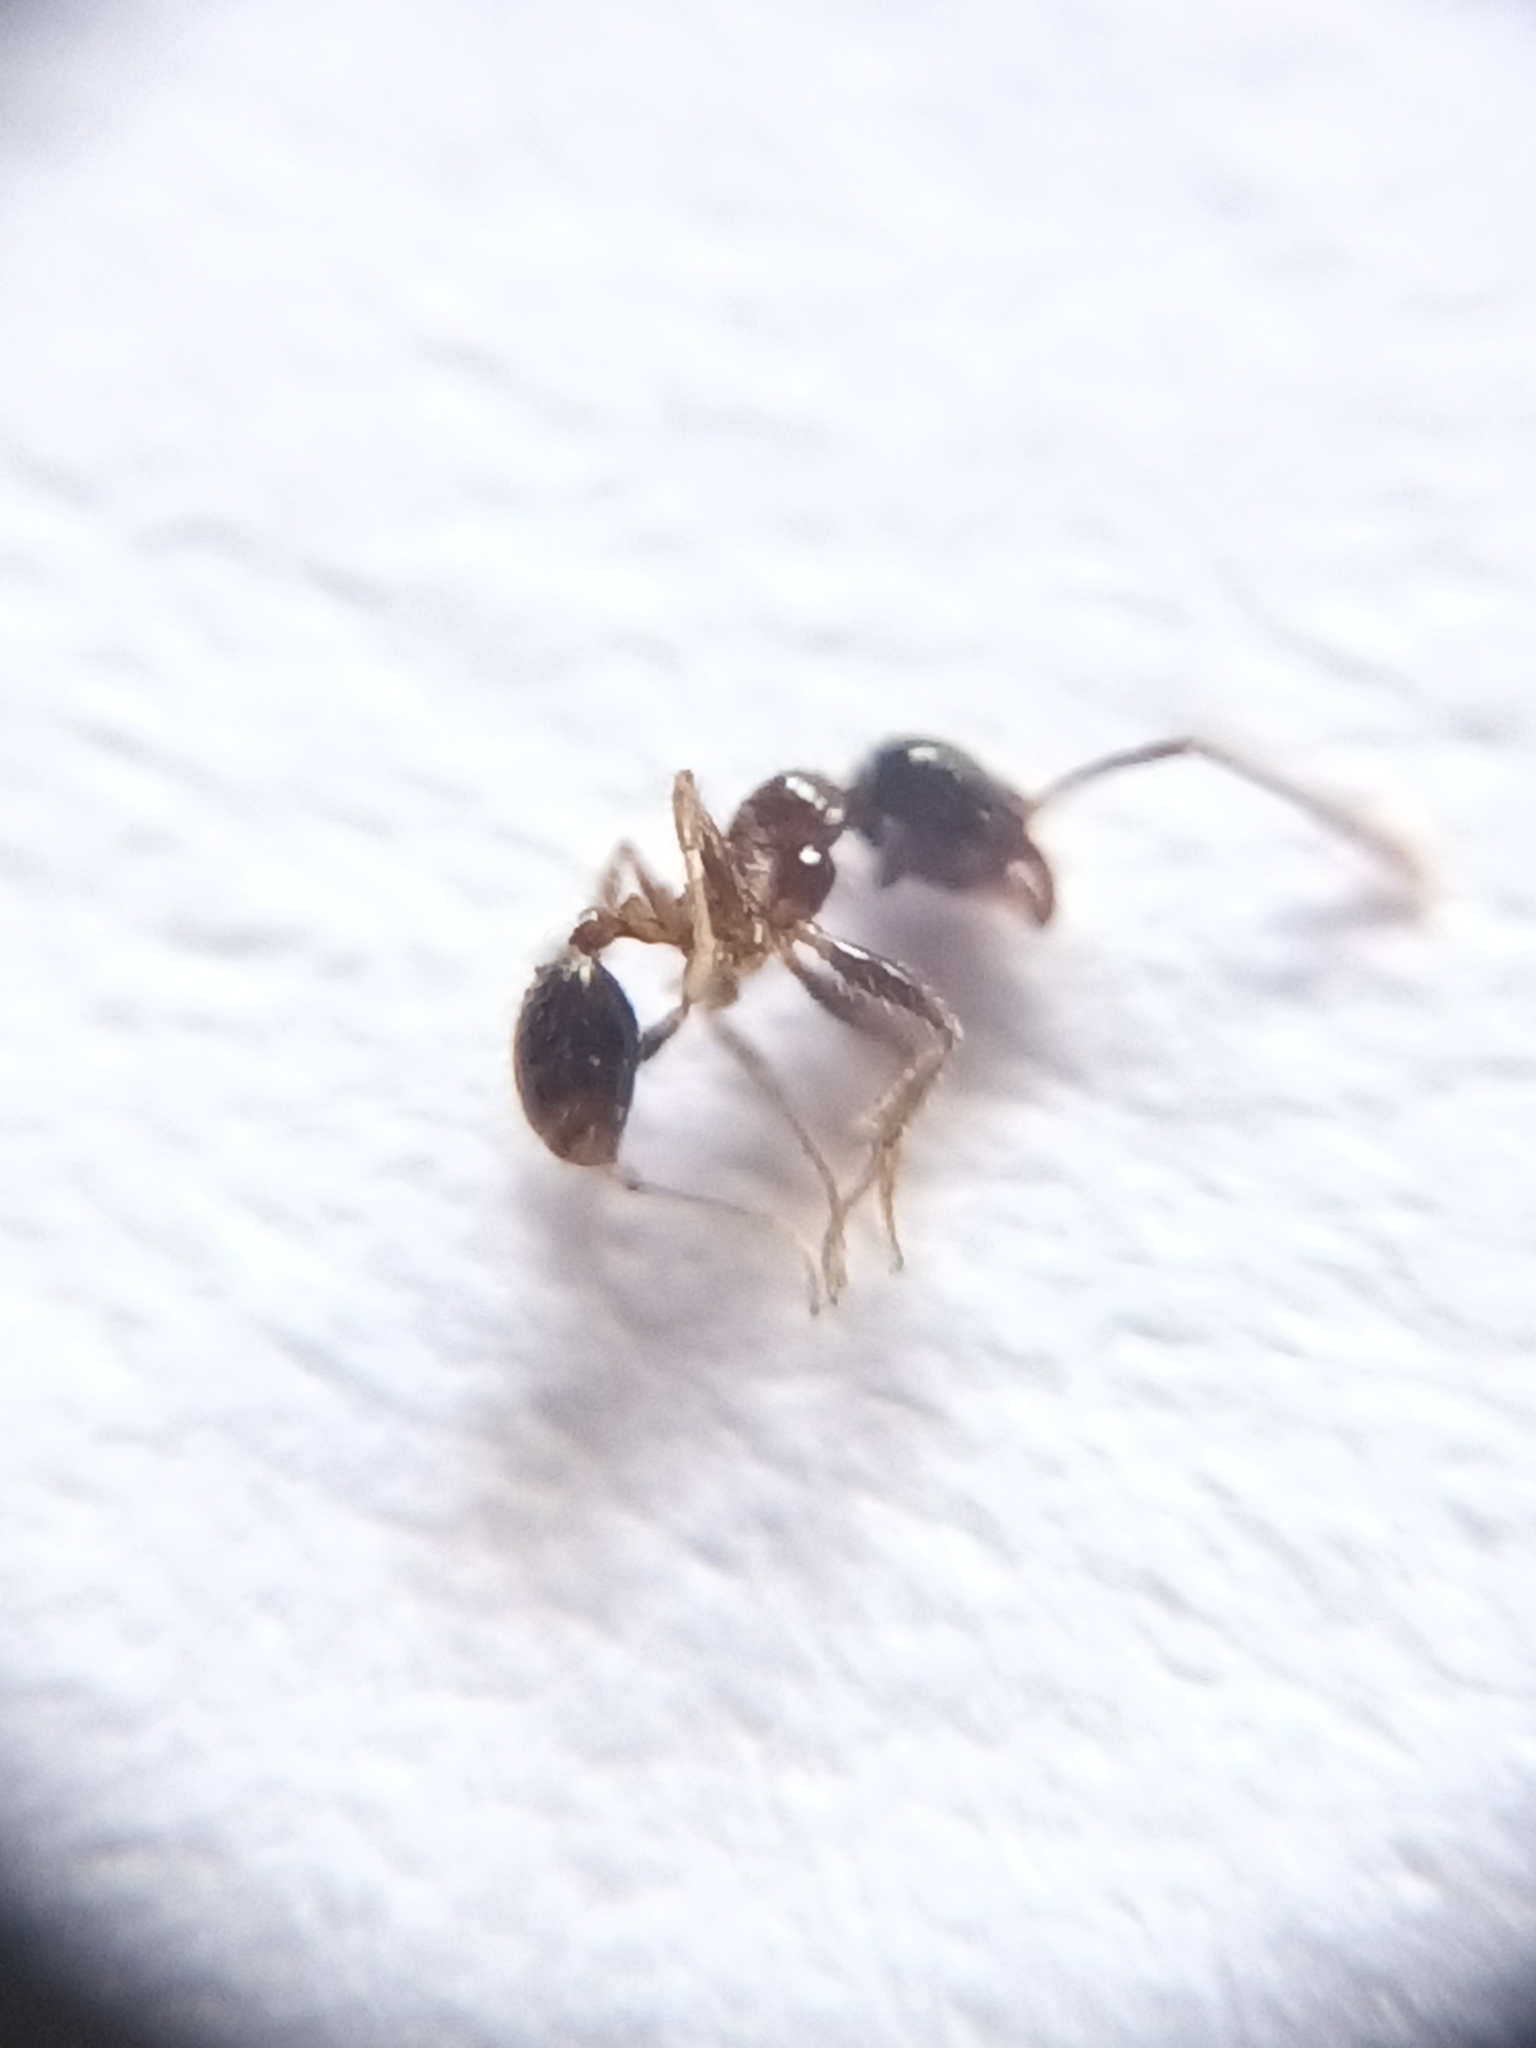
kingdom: Animalia
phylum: Arthropoda
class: Insecta
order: Hymenoptera
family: Formicidae
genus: Pheidole
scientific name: Pheidole sykesii
